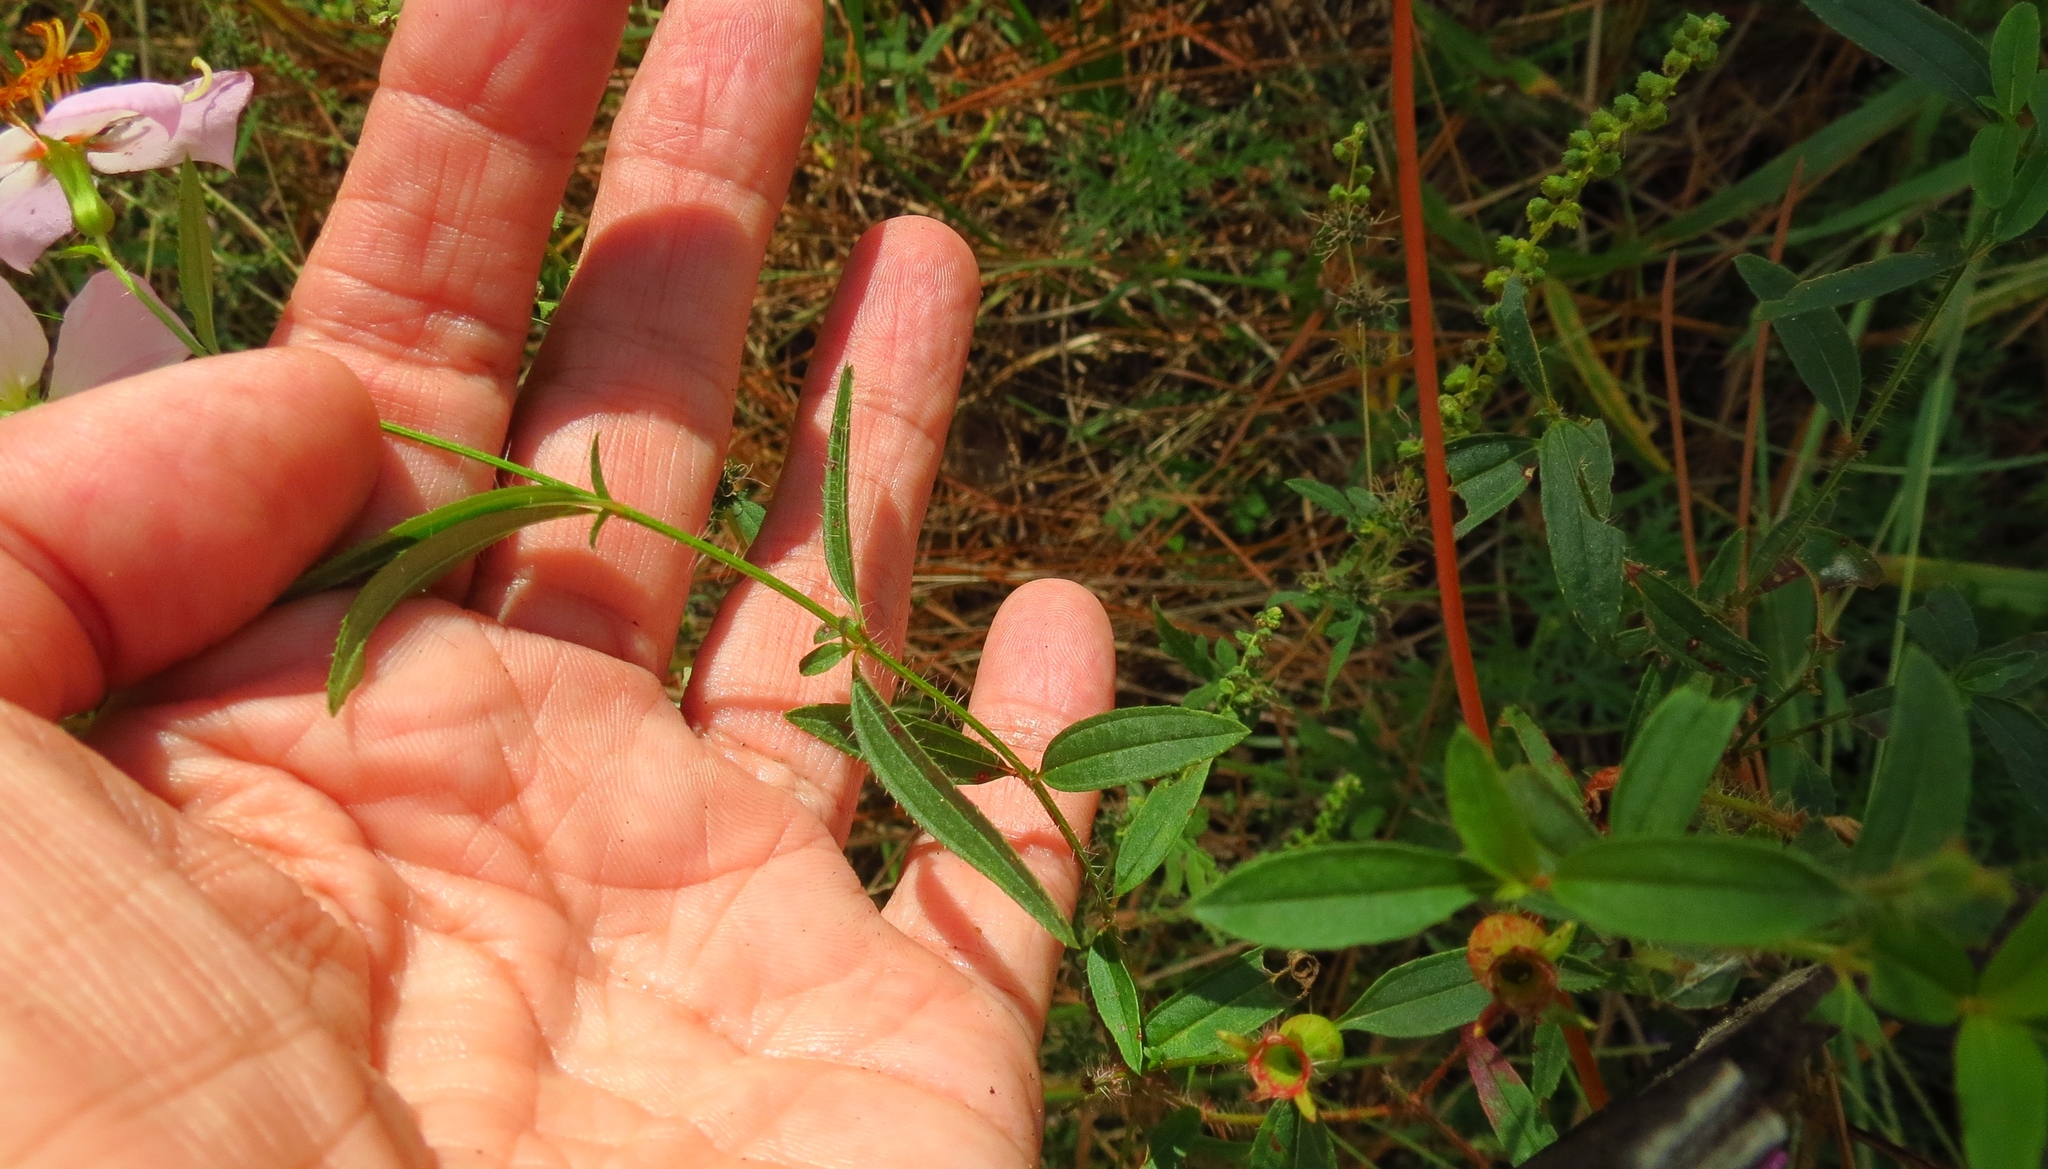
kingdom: Plantae
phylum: Tracheophyta
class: Magnoliopsida
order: Myrtales
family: Melastomataceae
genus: Rhexia
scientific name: Rhexia mariana
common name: Dull meadow-pitcher
